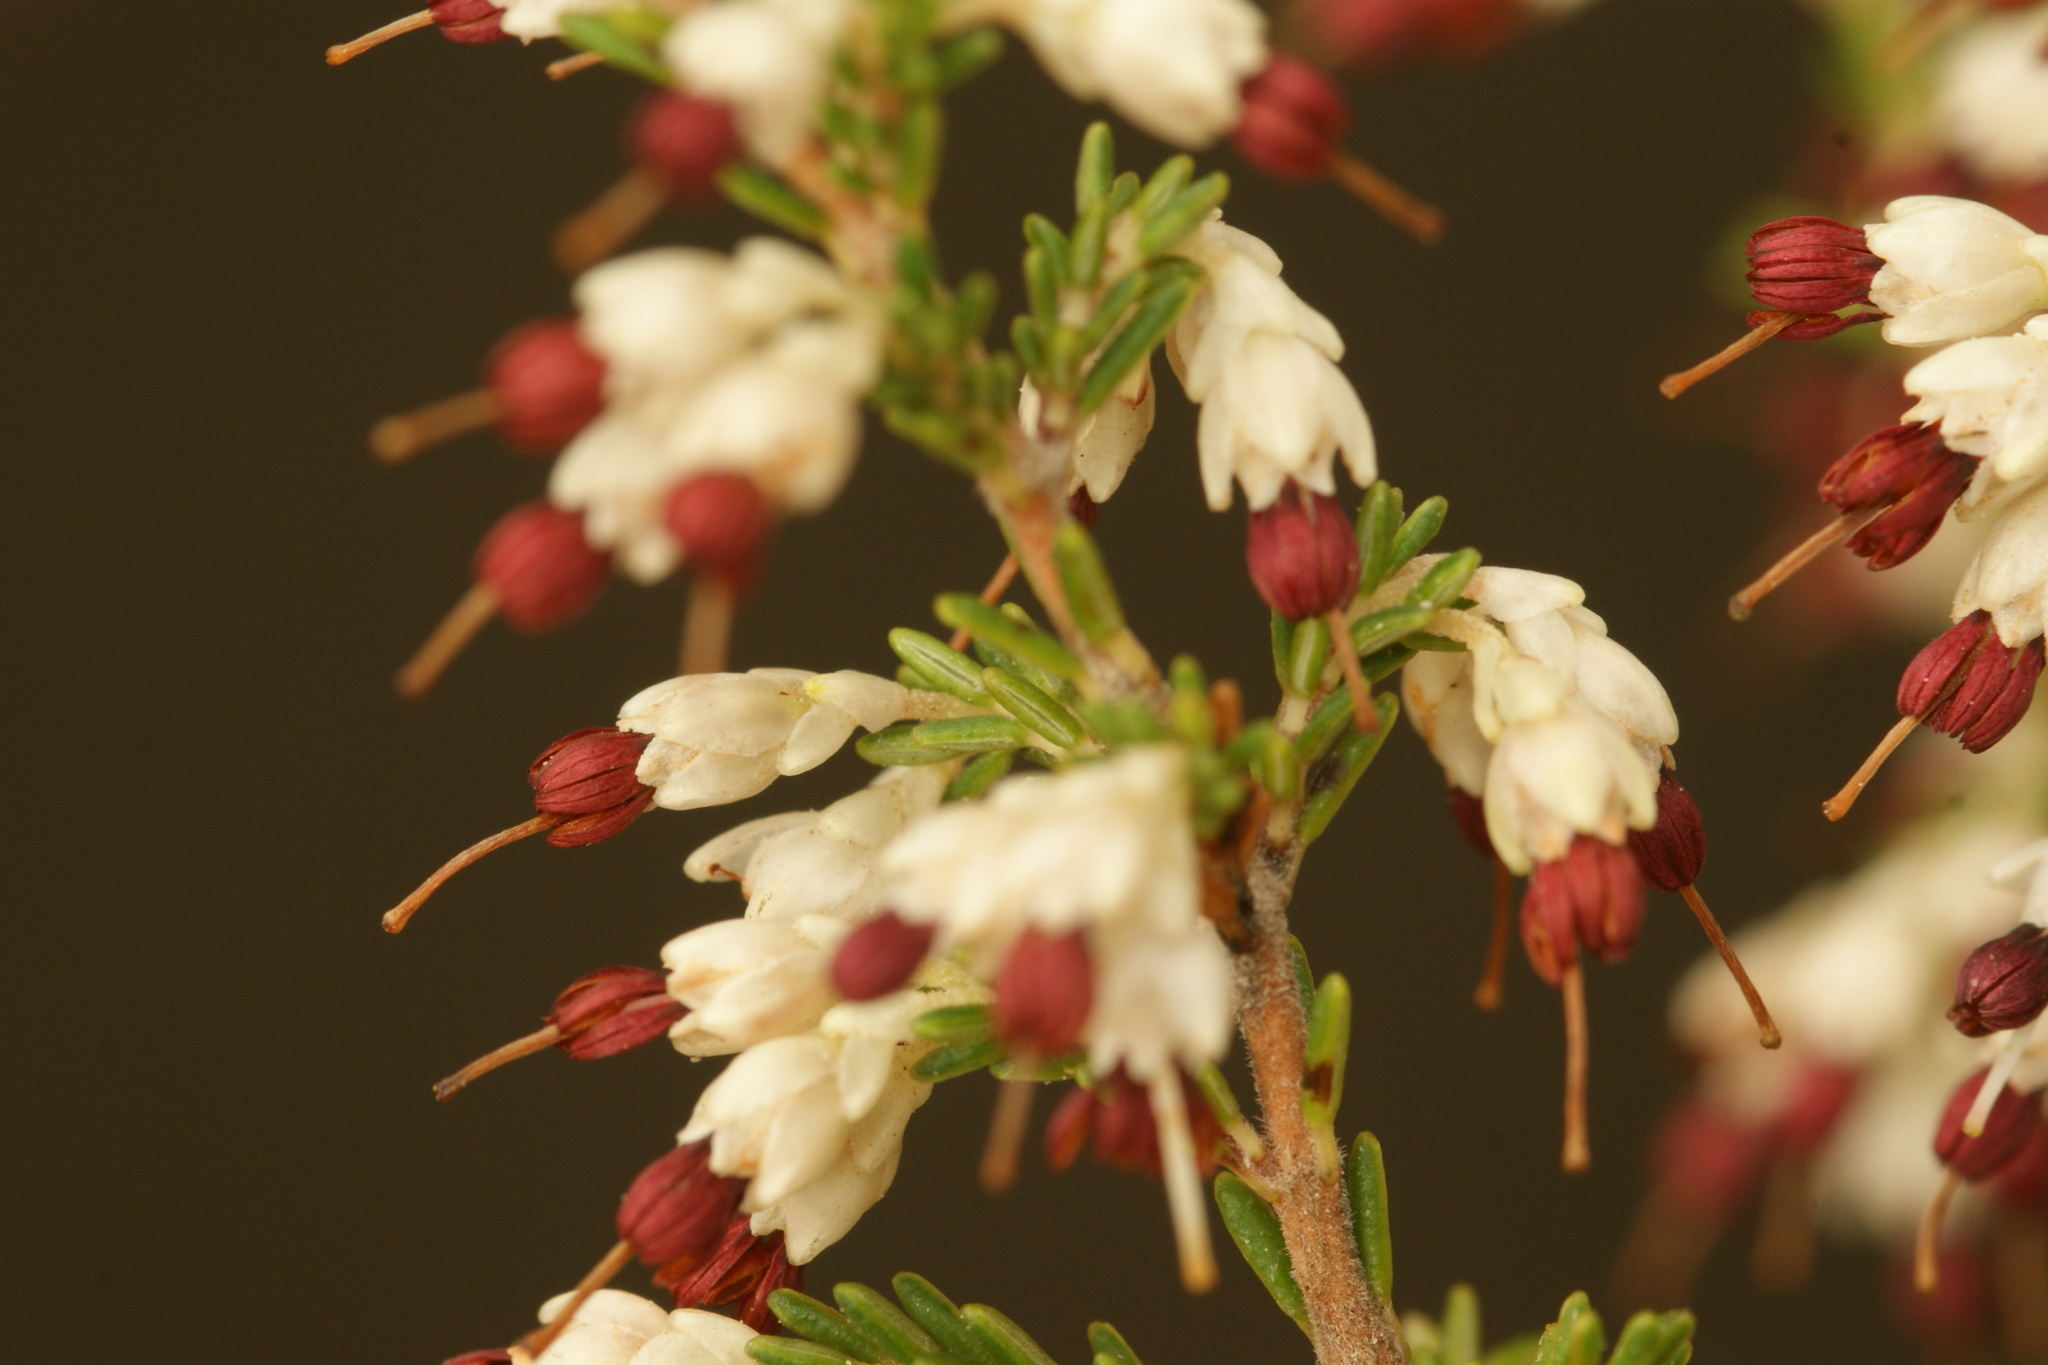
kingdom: Plantae
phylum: Tracheophyta
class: Magnoliopsida
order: Ericales
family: Ericaceae
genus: Erica
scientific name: Erica imbricata
